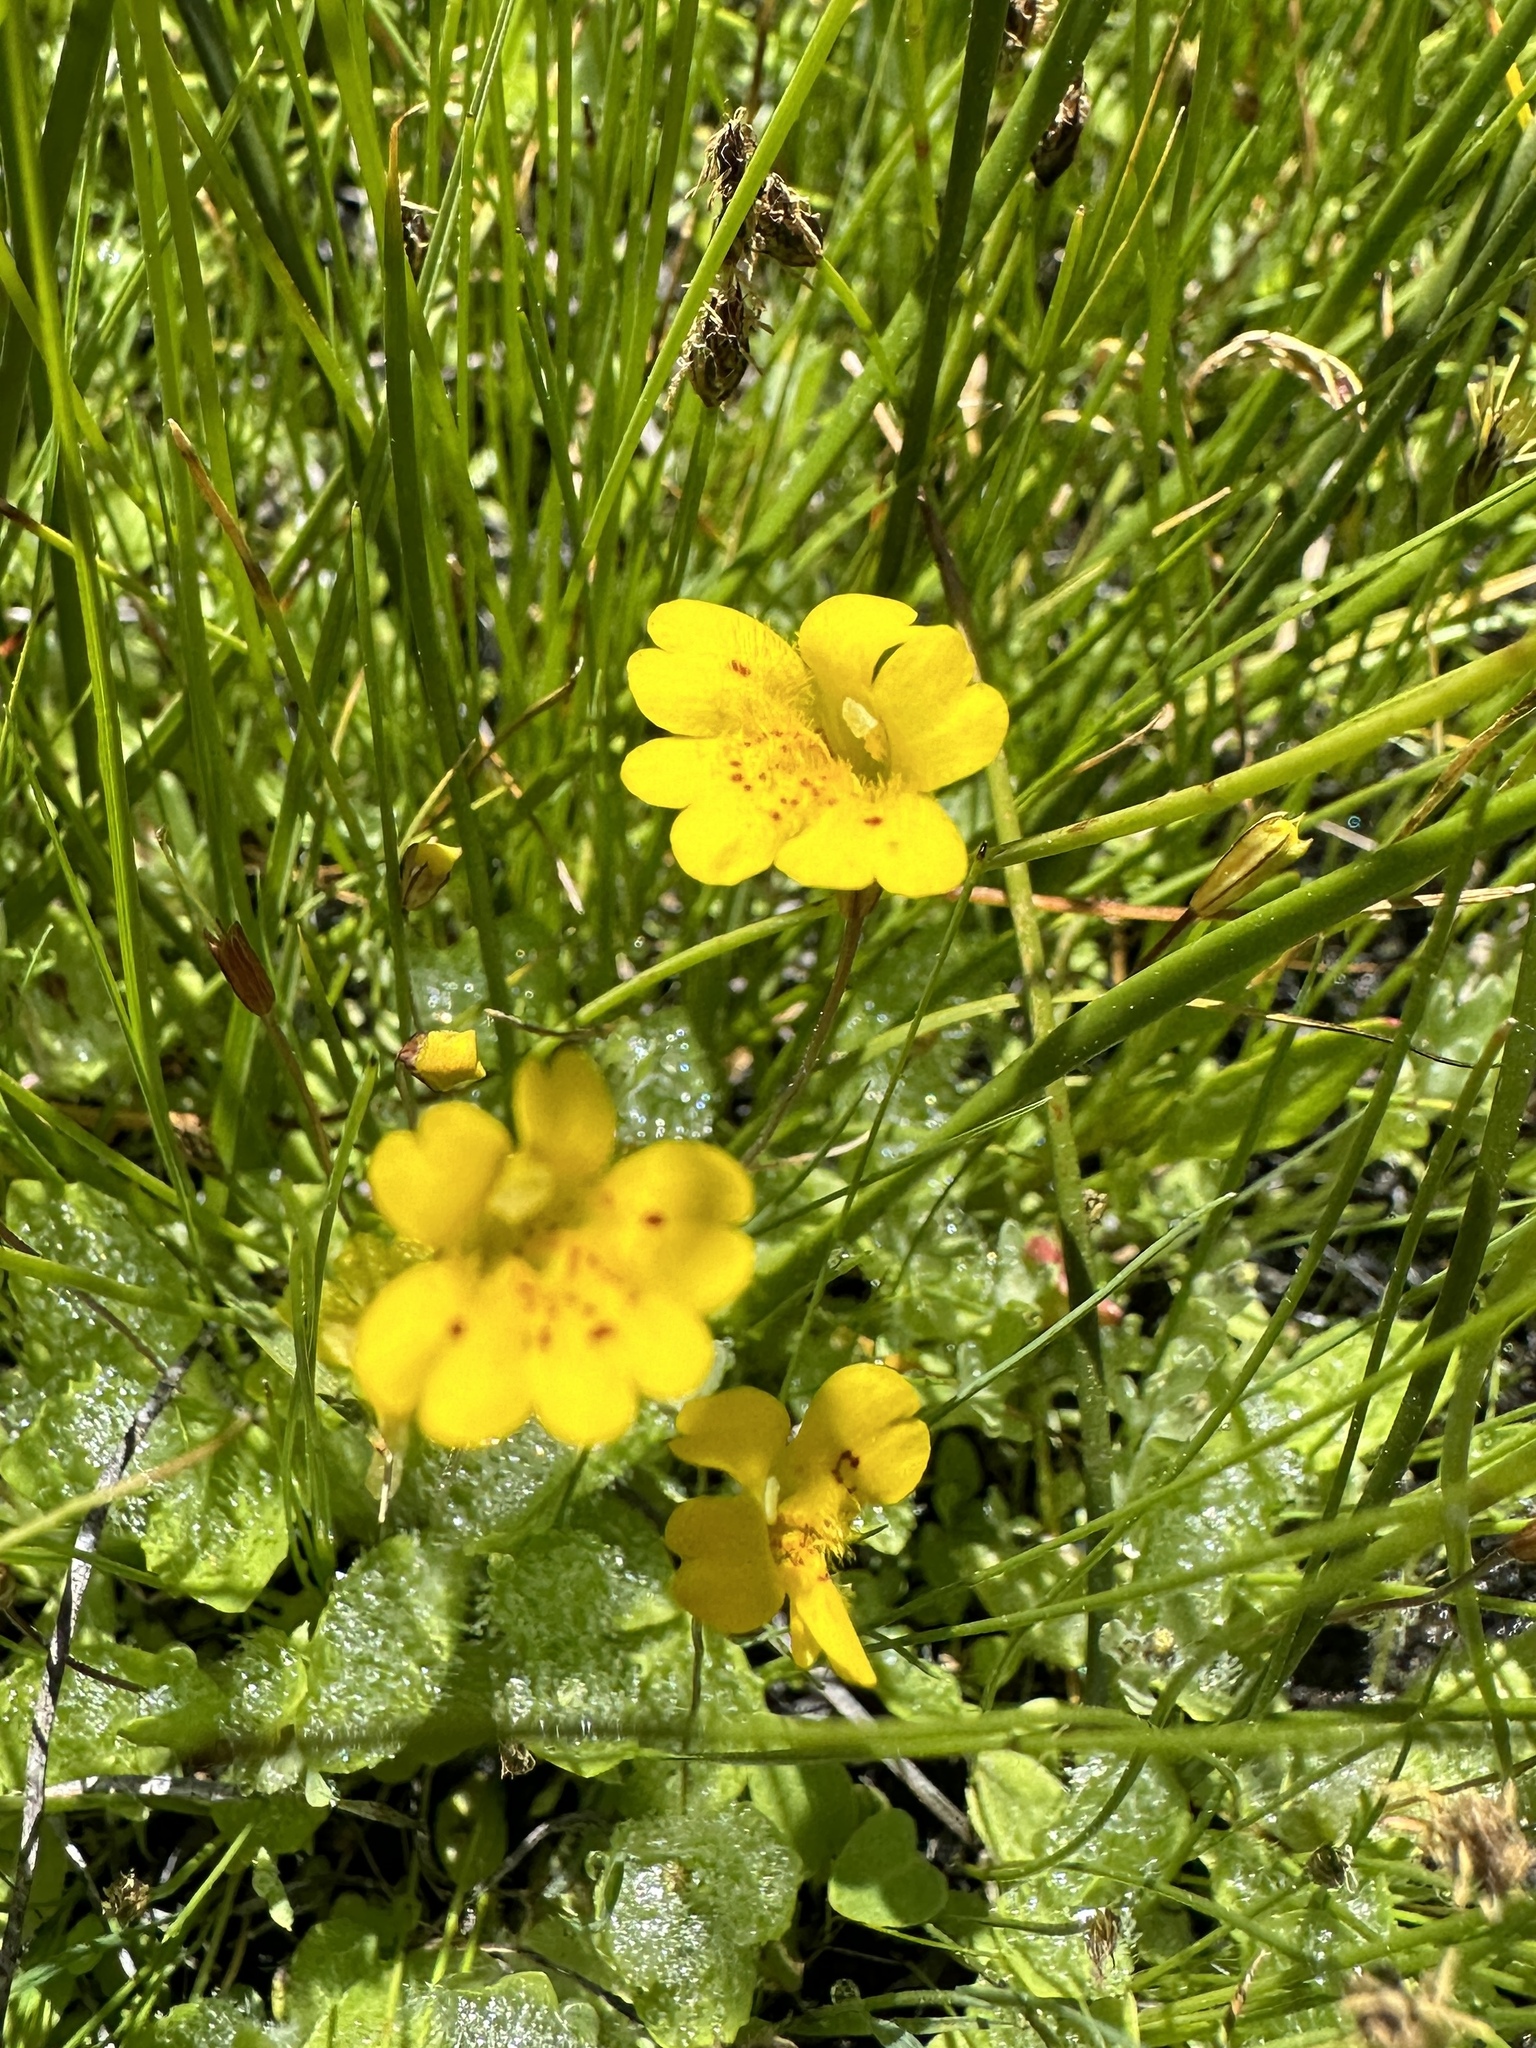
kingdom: Plantae
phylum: Tracheophyta
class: Magnoliopsida
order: Lamiales
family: Phrymaceae
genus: Erythranthe
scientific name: Erythranthe primuloides
